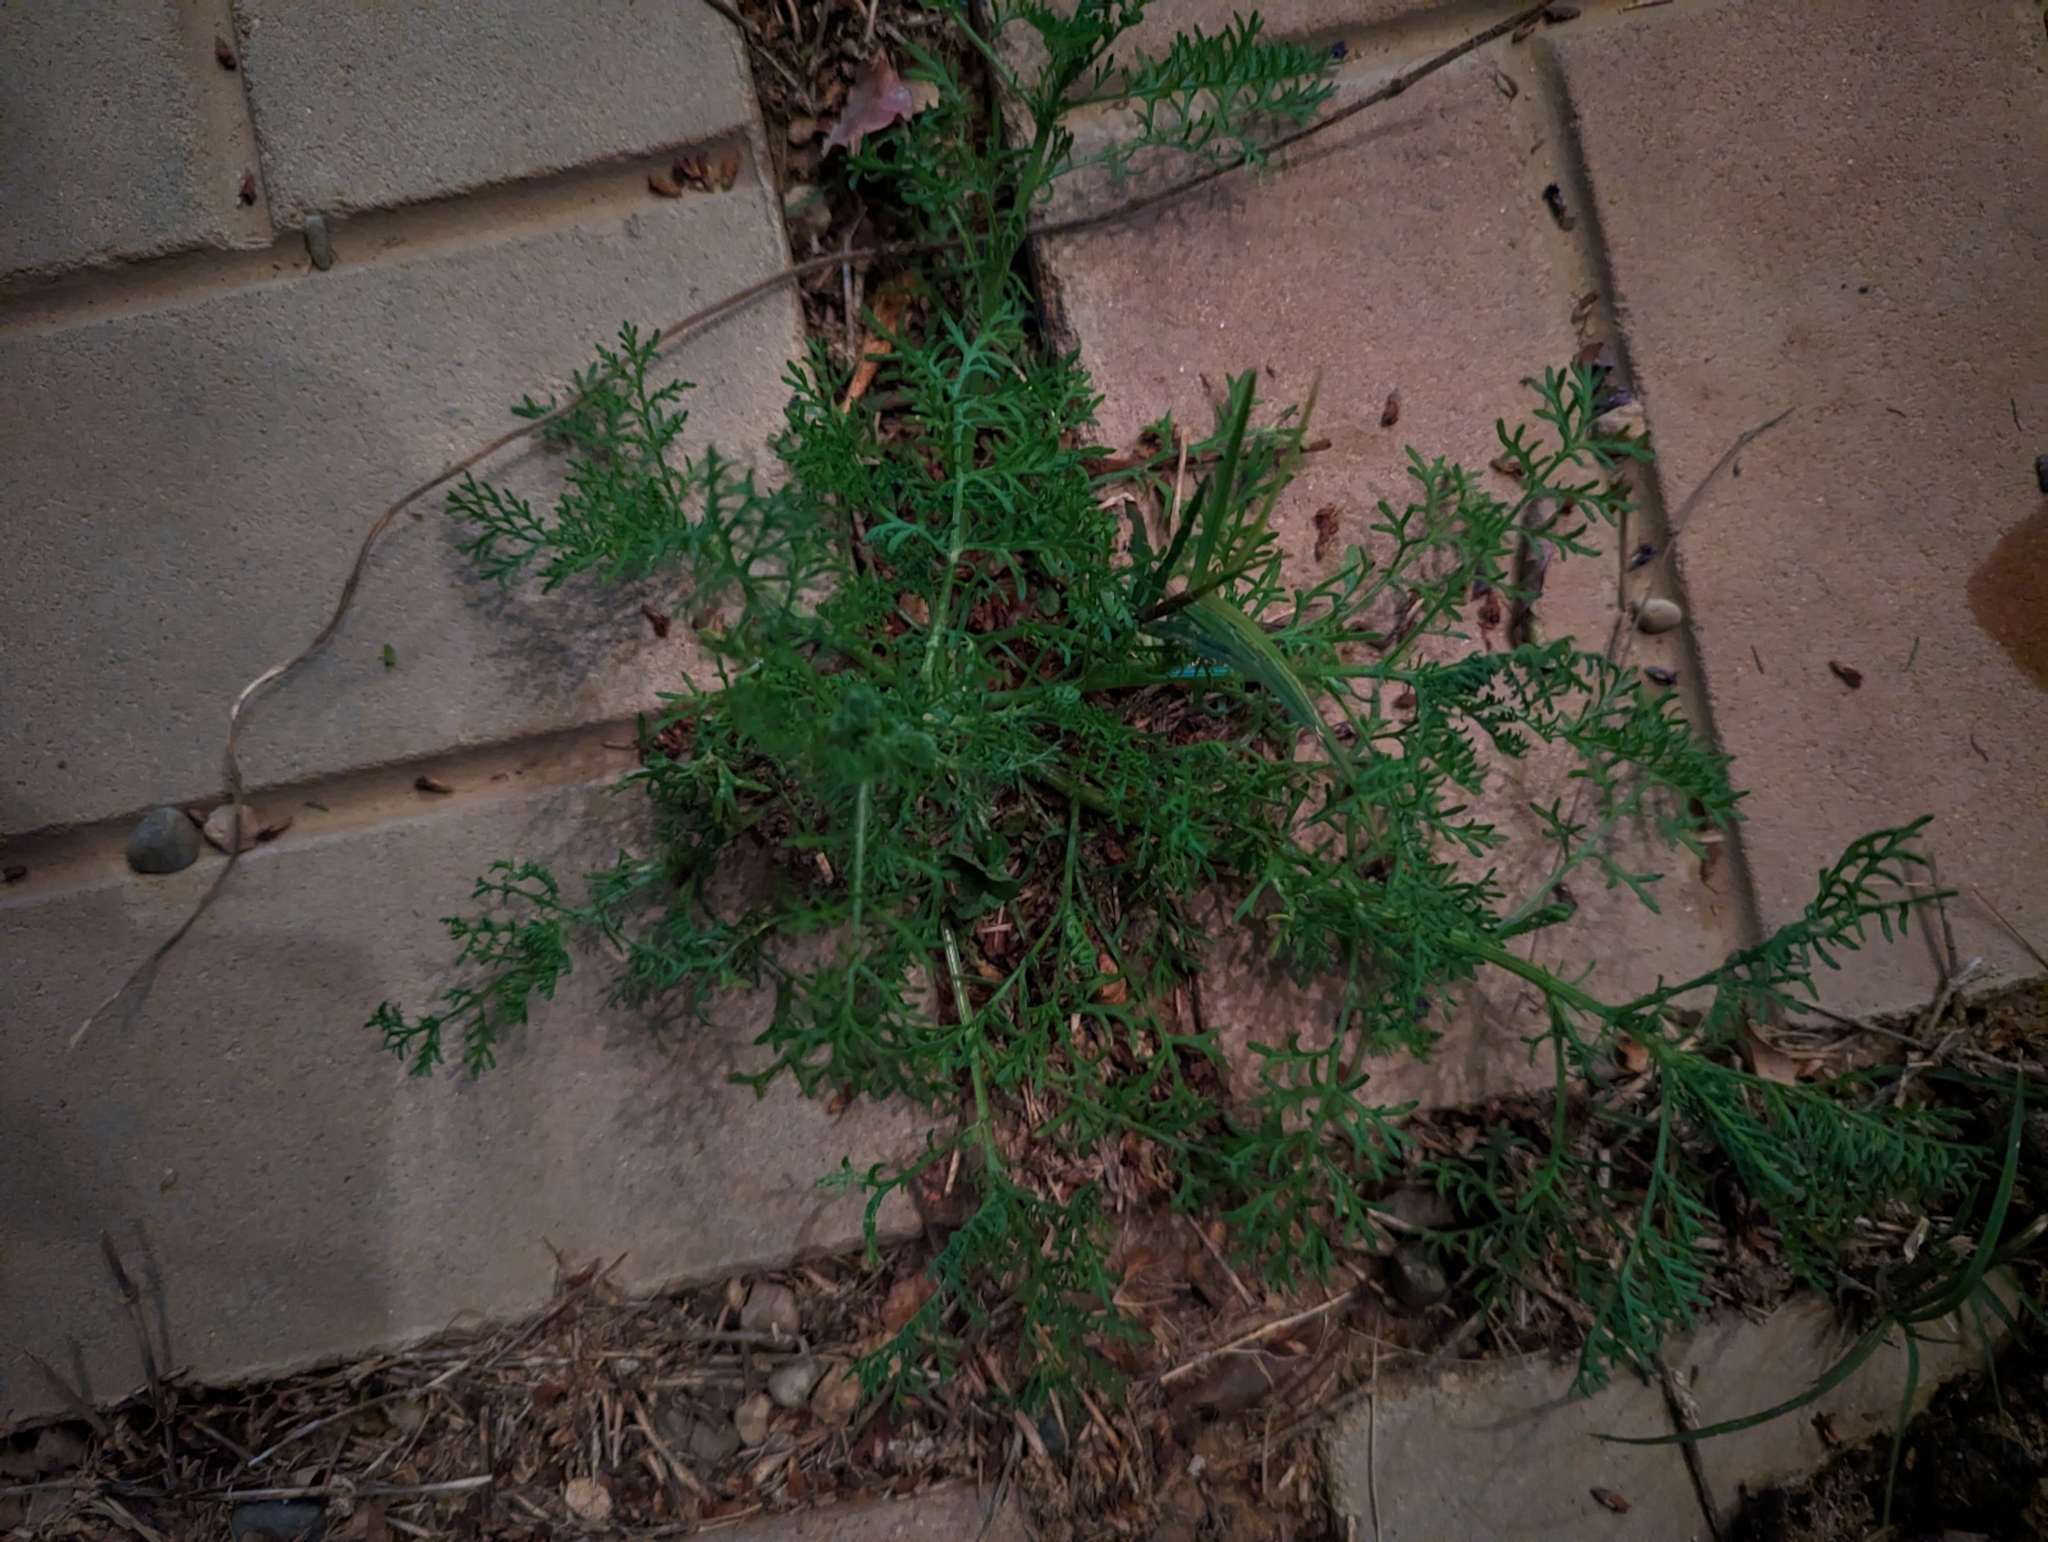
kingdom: Plantae
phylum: Tracheophyta
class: Magnoliopsida
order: Asterales
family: Asteraceae
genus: Oncosiphon
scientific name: Oncosiphon pilulifer
